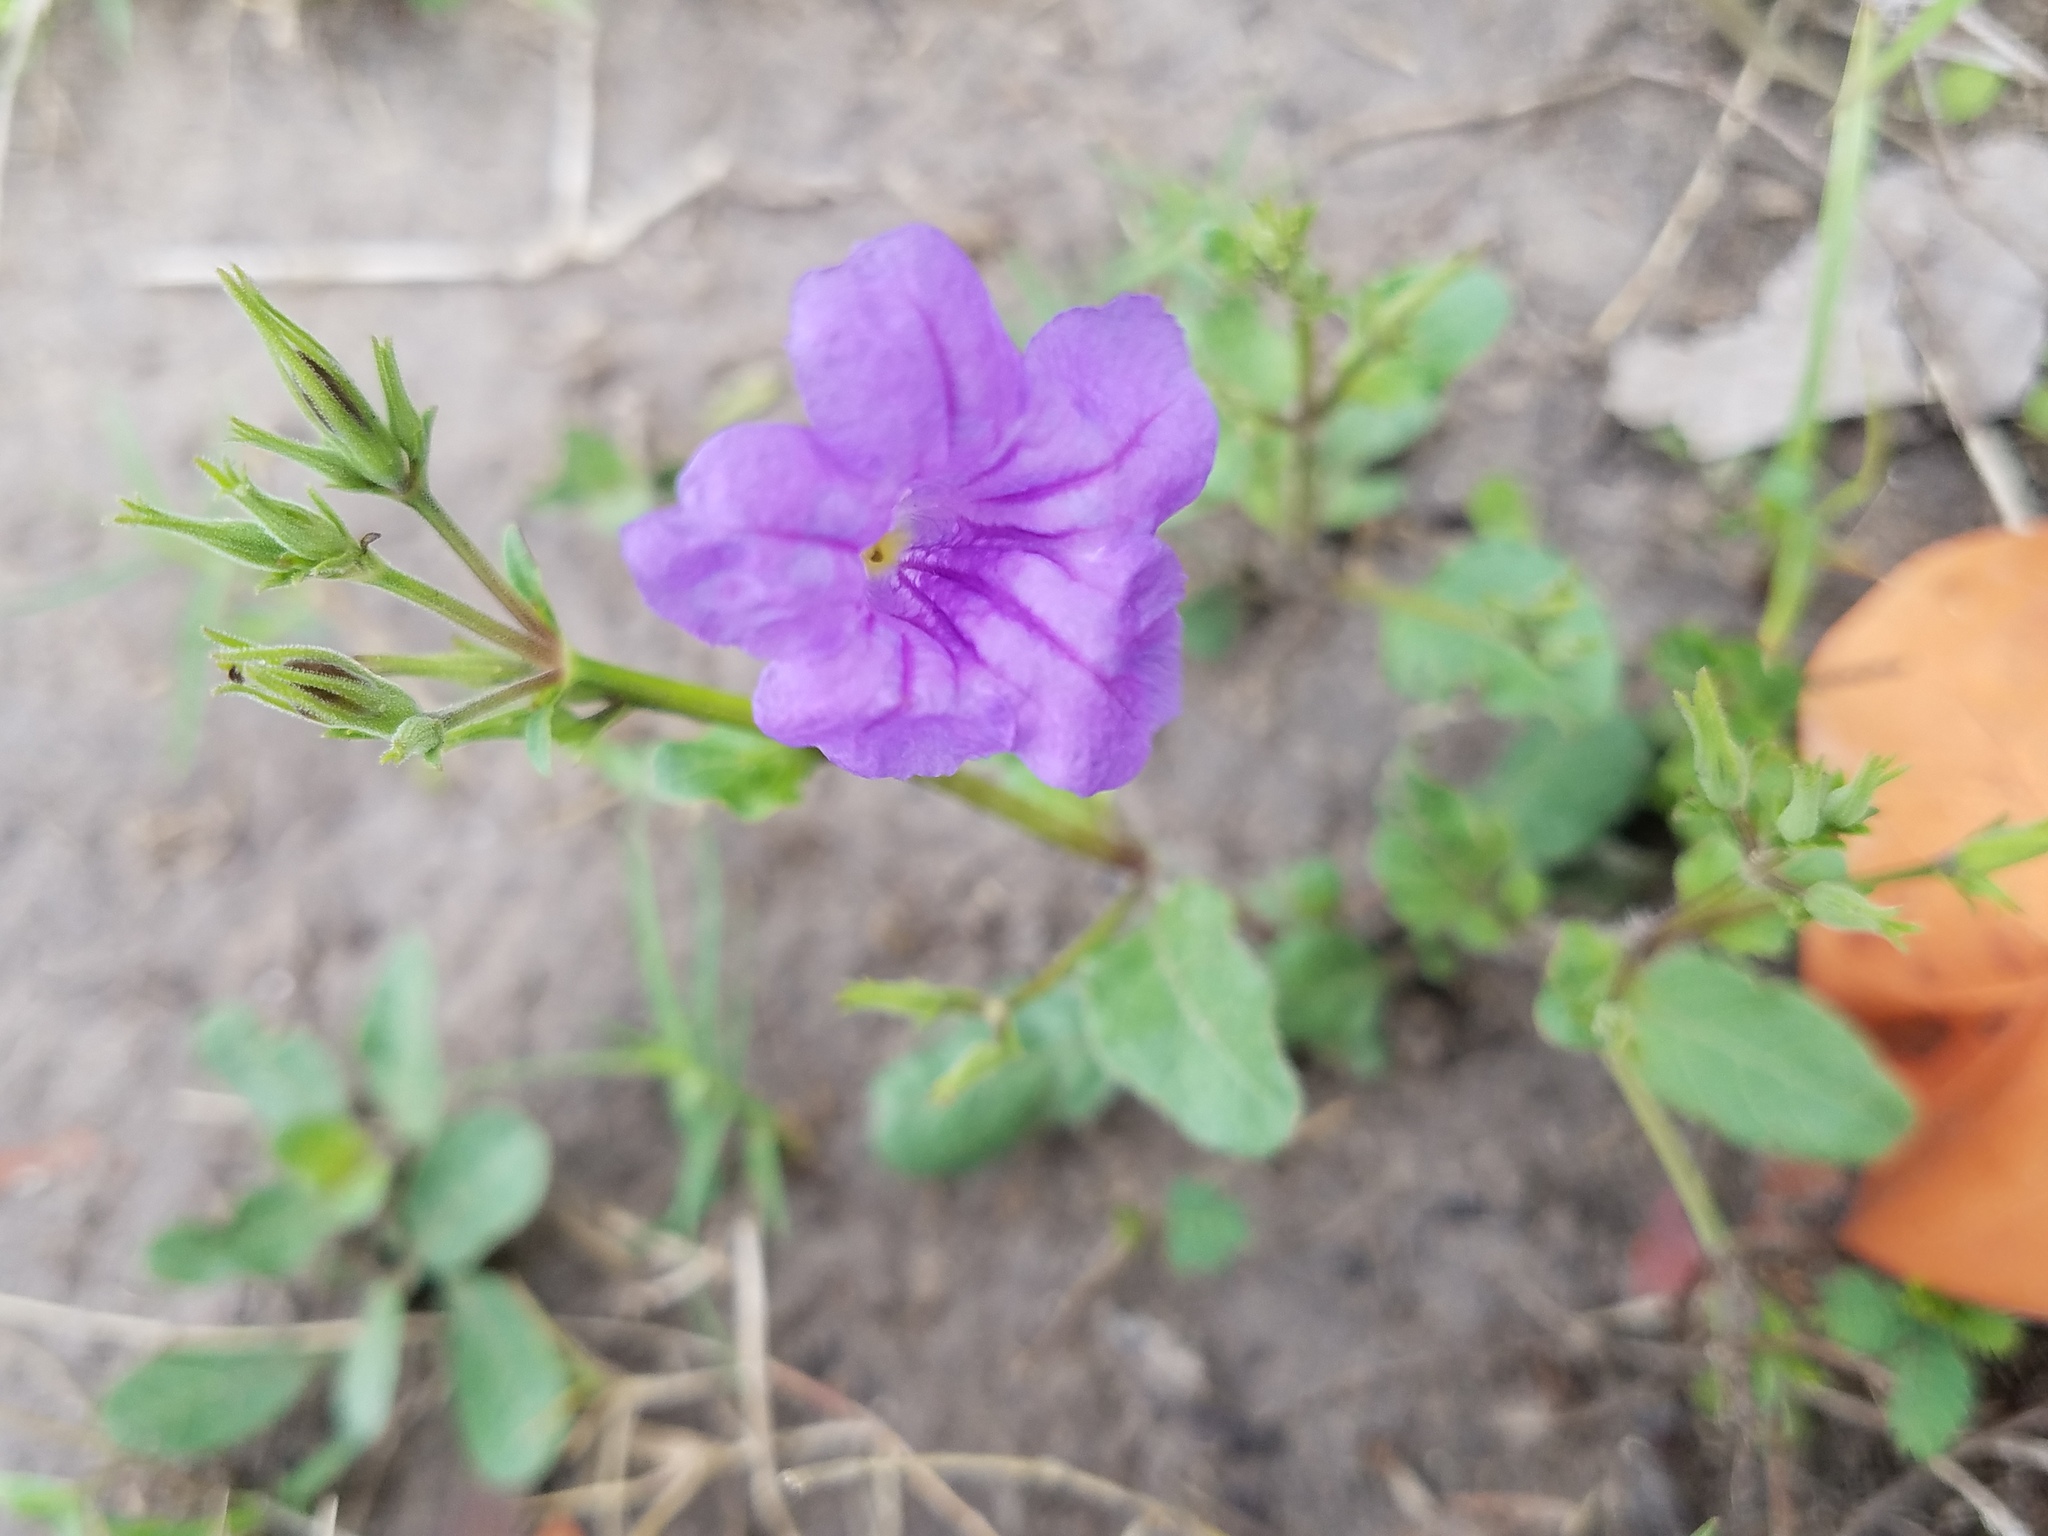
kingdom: Plantae
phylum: Tracheophyta
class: Magnoliopsida
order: Lamiales
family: Acanthaceae
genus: Ruellia
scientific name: Ruellia ciliatiflora
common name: Hairyflower wild petunia
